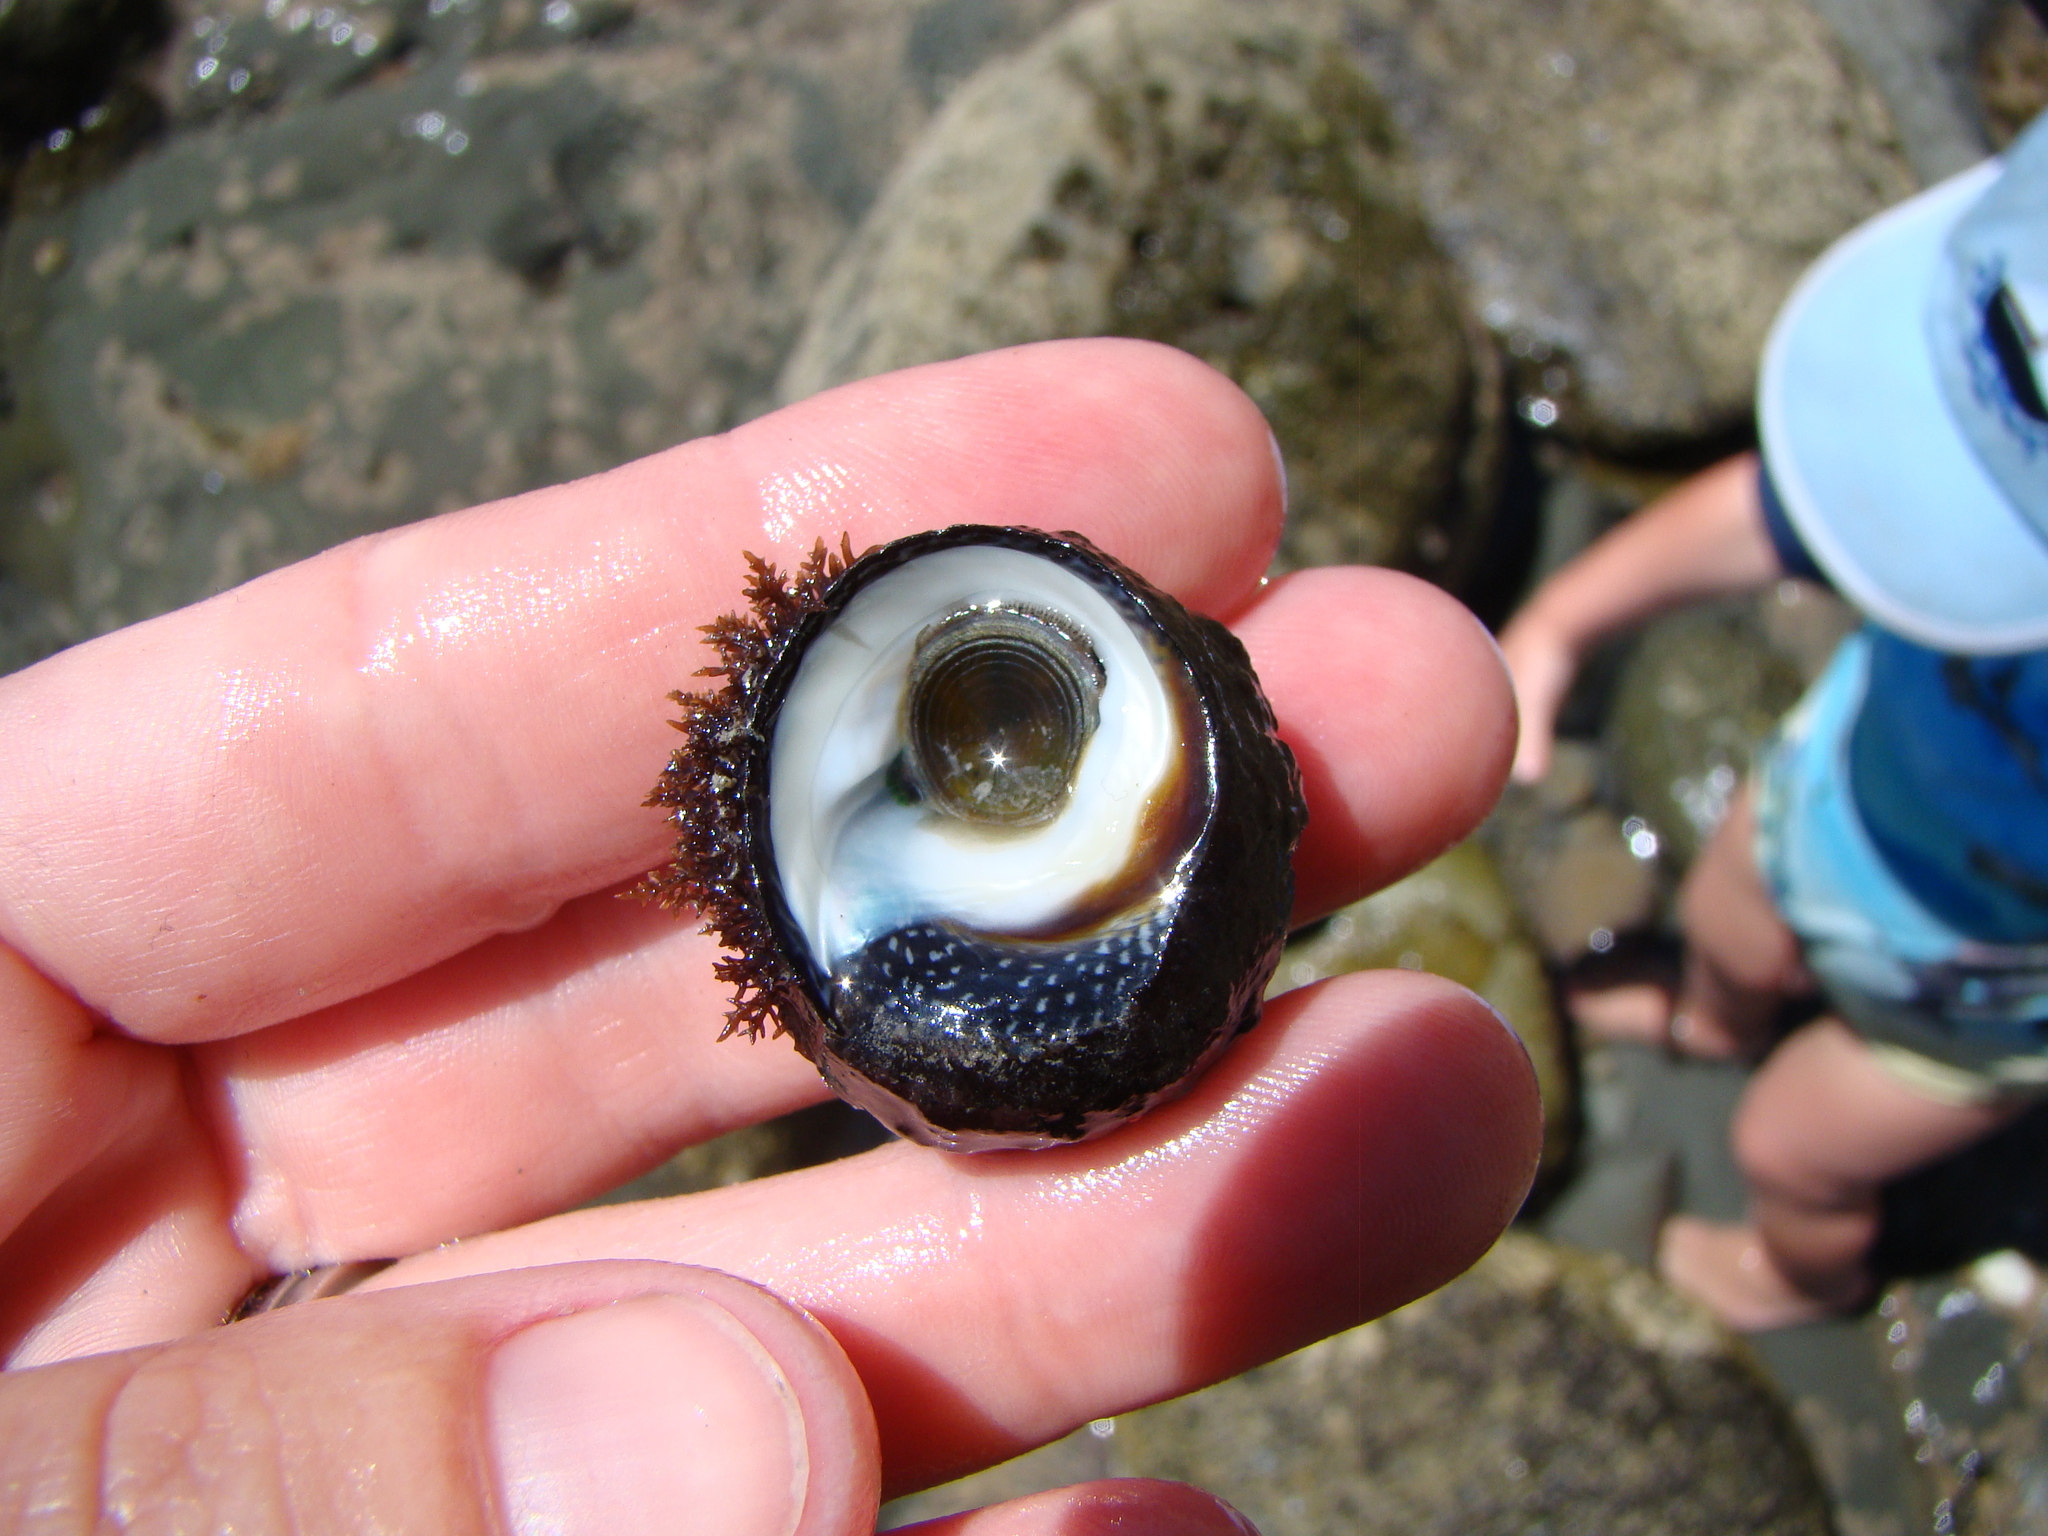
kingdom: Animalia
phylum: Mollusca
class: Gastropoda
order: Trochida
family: Trochidae
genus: Diloma
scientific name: Diloma aethiops
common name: Scorched monodont
